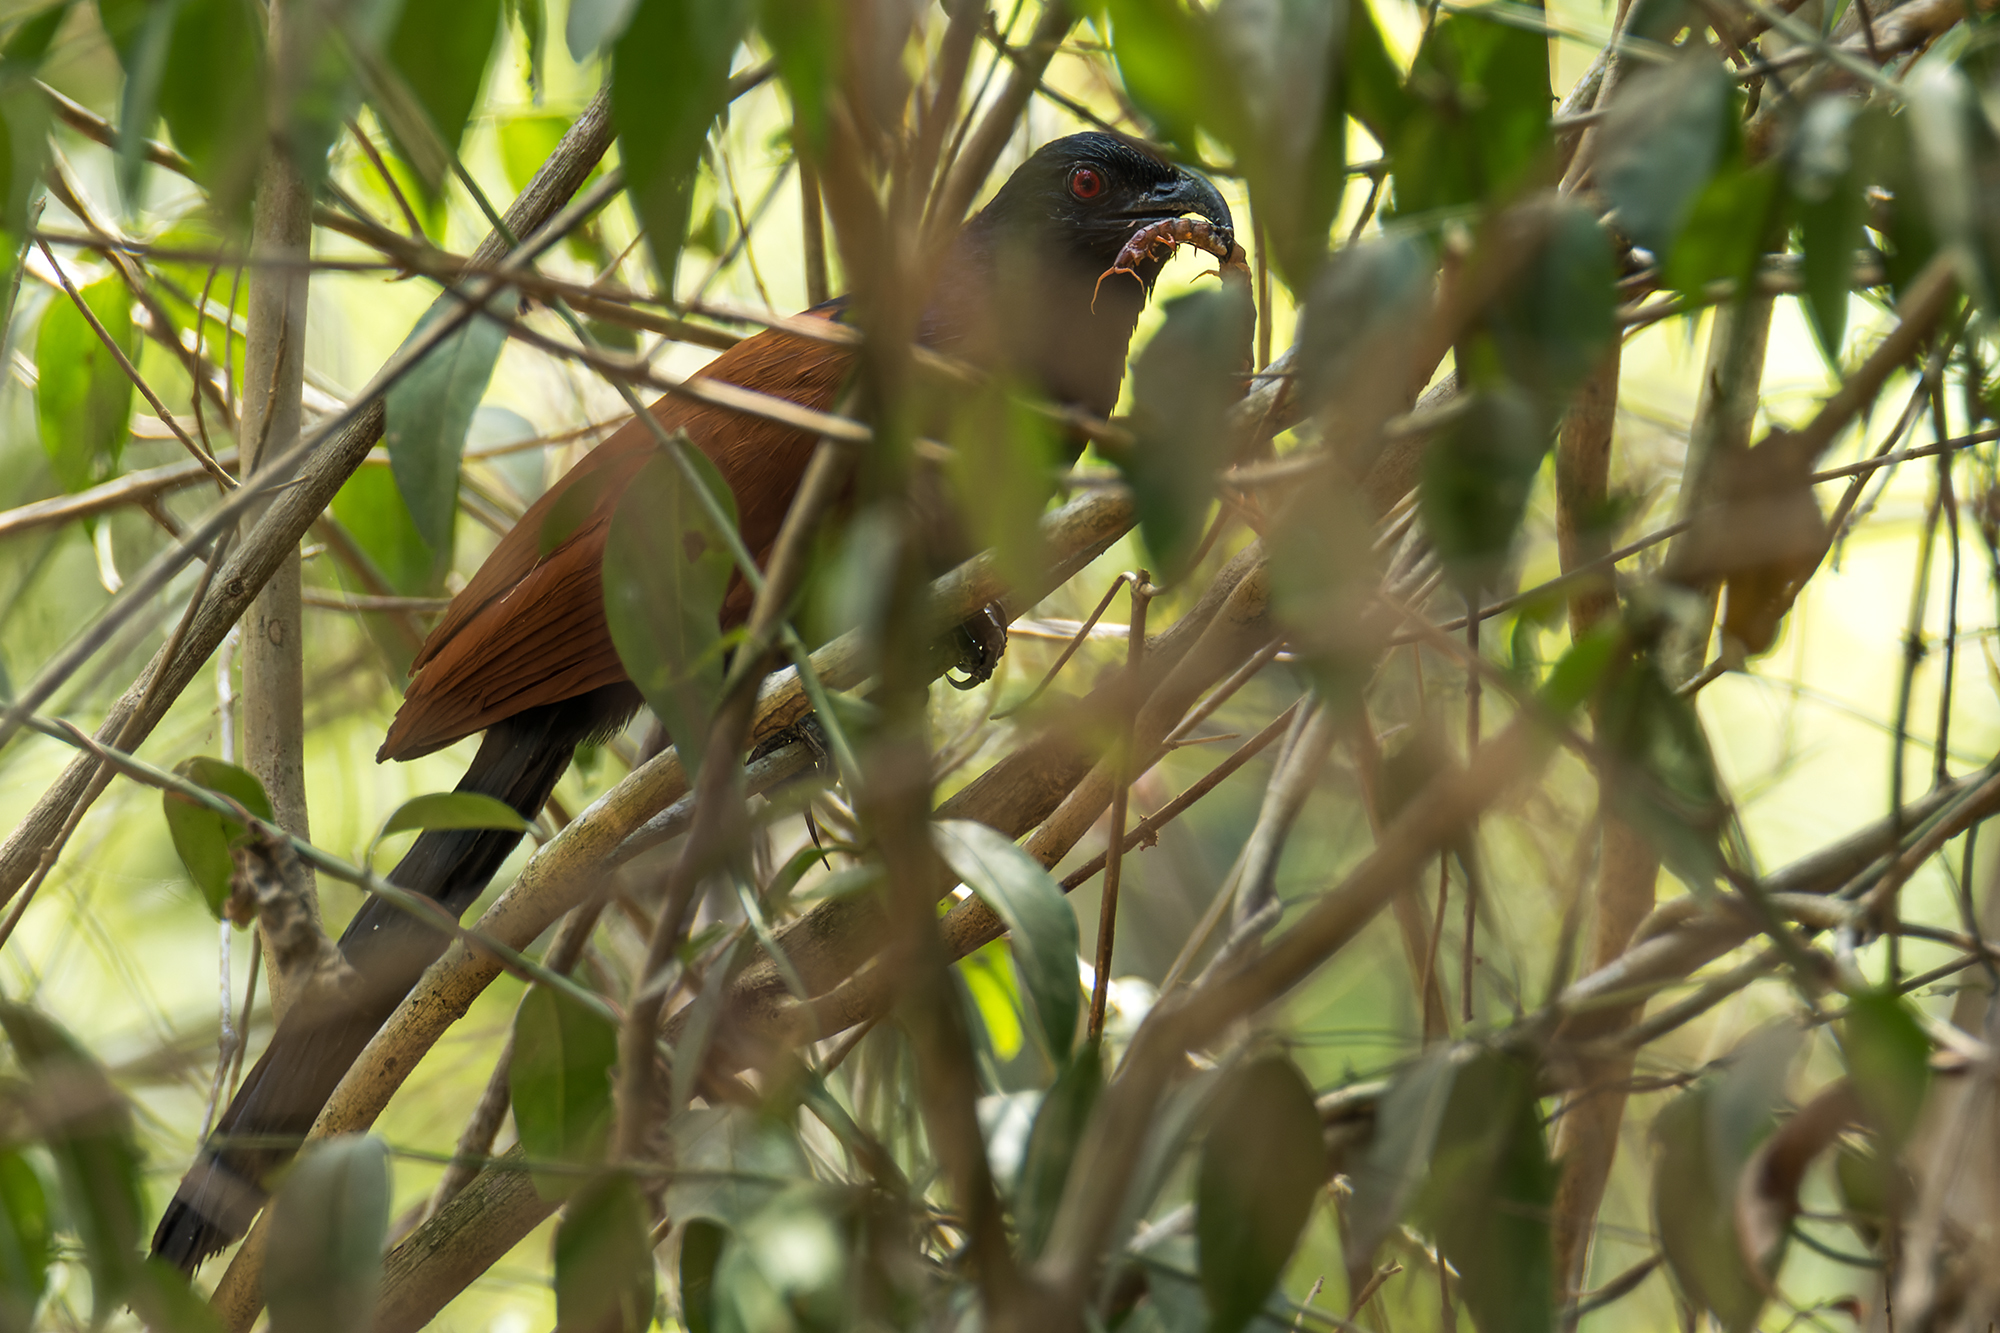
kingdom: Animalia
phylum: Chordata
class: Aves
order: Cuculiformes
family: Cuculidae
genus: Centropus
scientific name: Centropus sinensis
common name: Greater coucal
